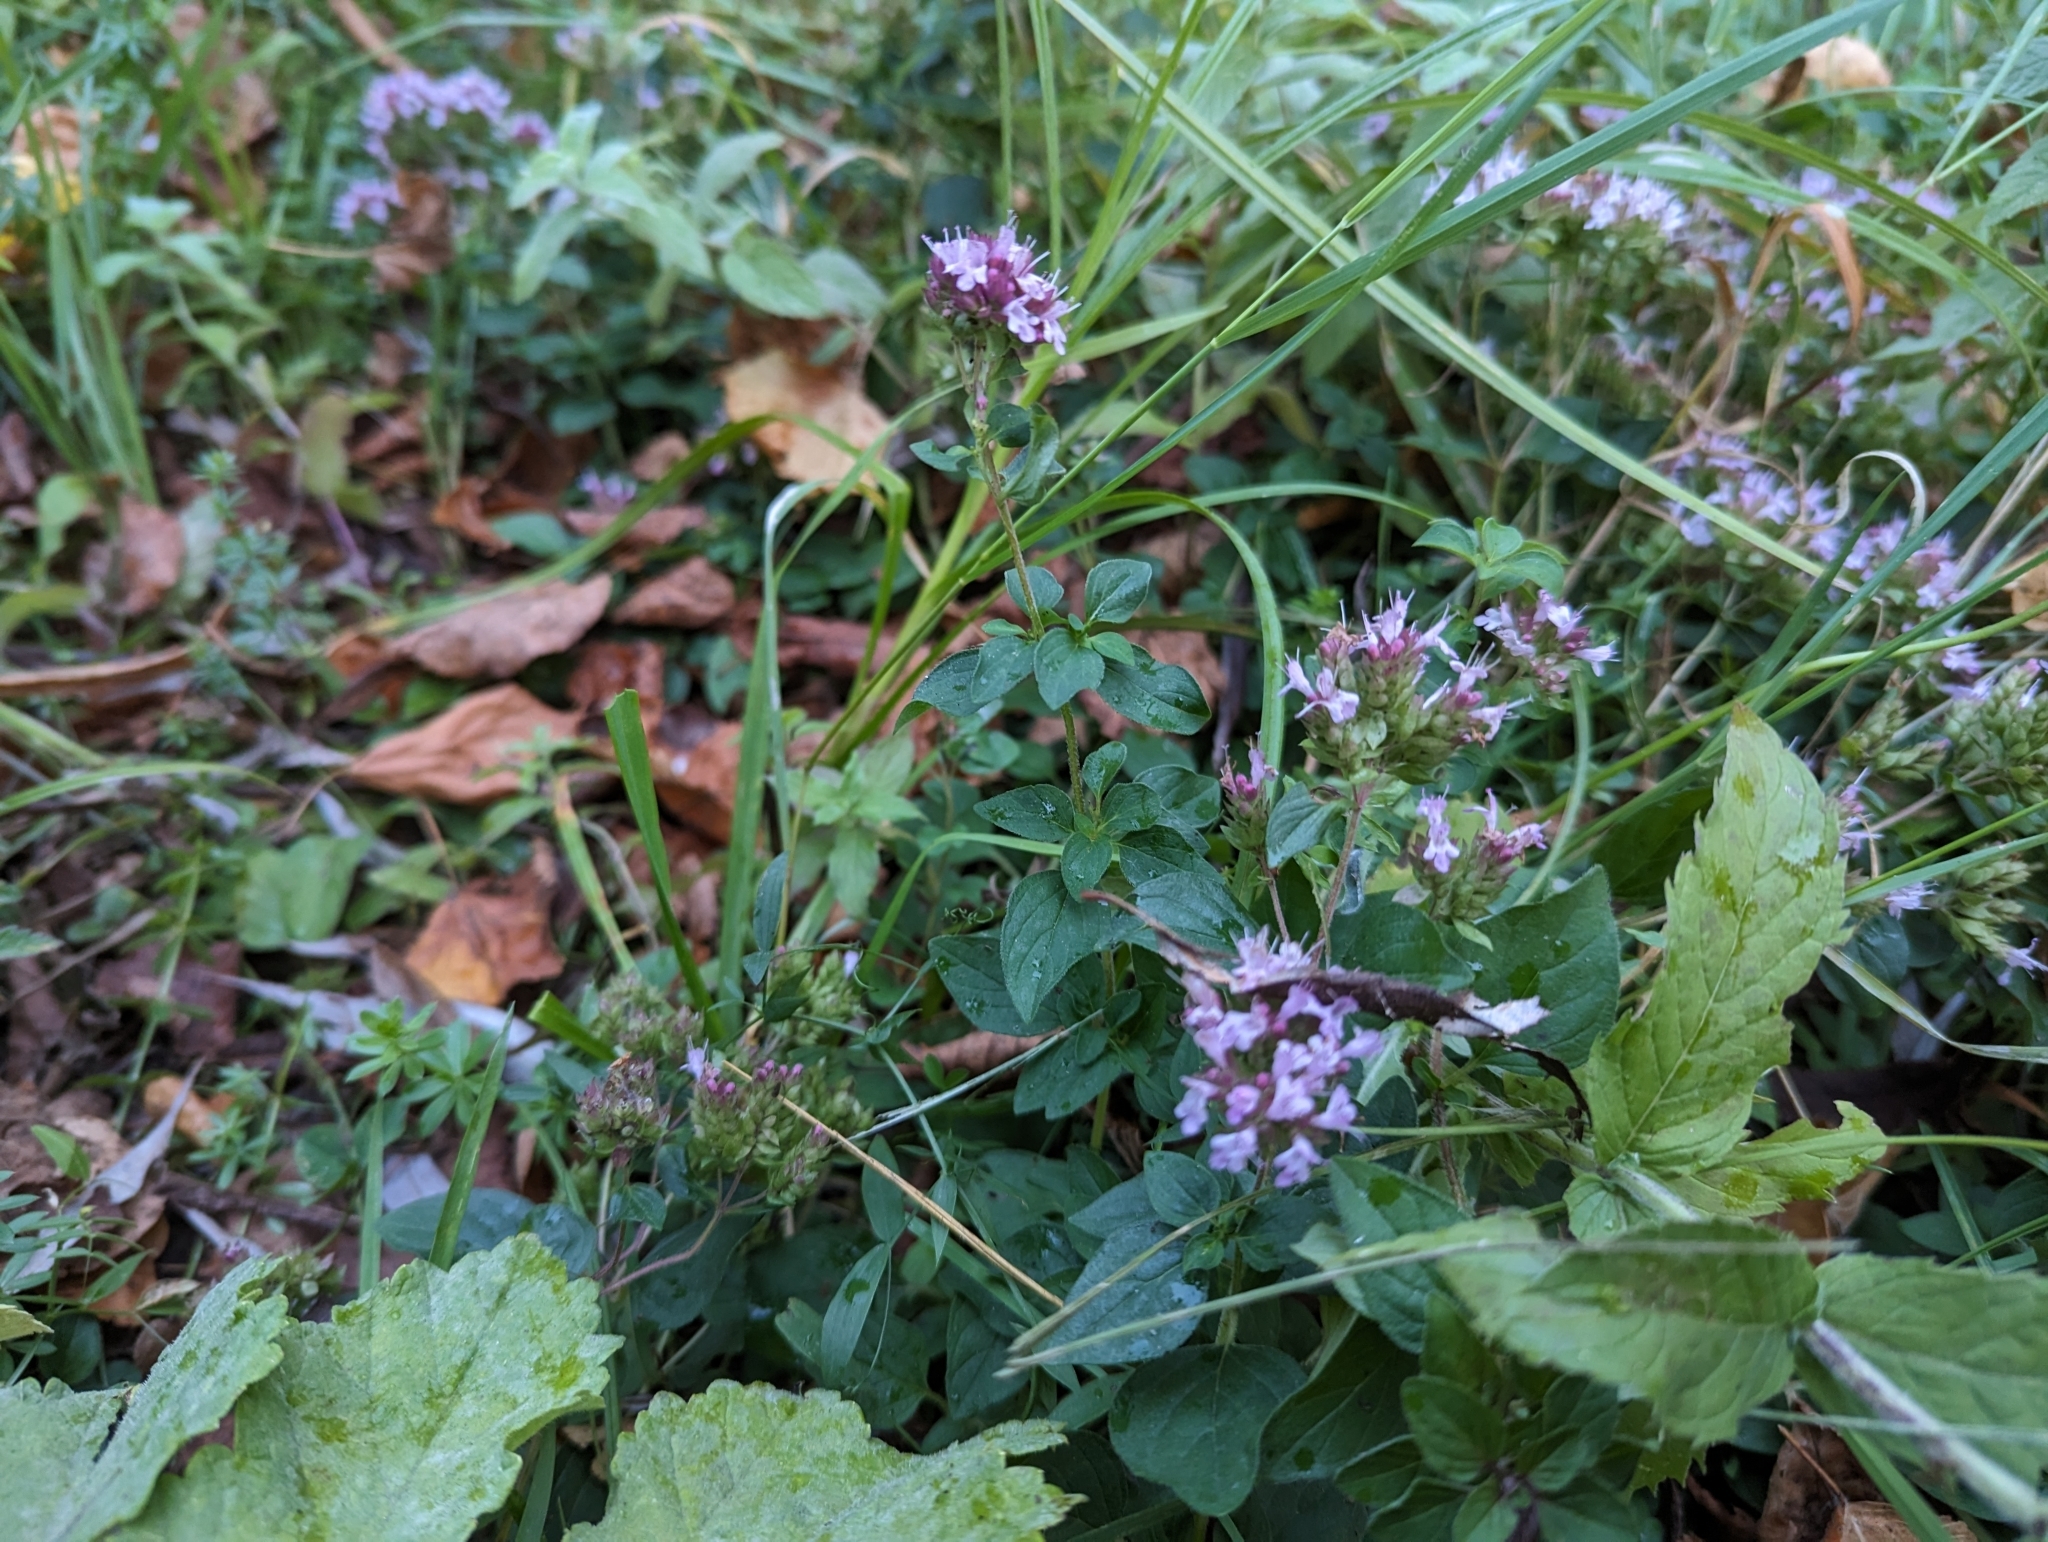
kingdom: Plantae
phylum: Tracheophyta
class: Magnoliopsida
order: Lamiales
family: Lamiaceae
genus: Origanum
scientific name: Origanum vulgare
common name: Wild marjoram
